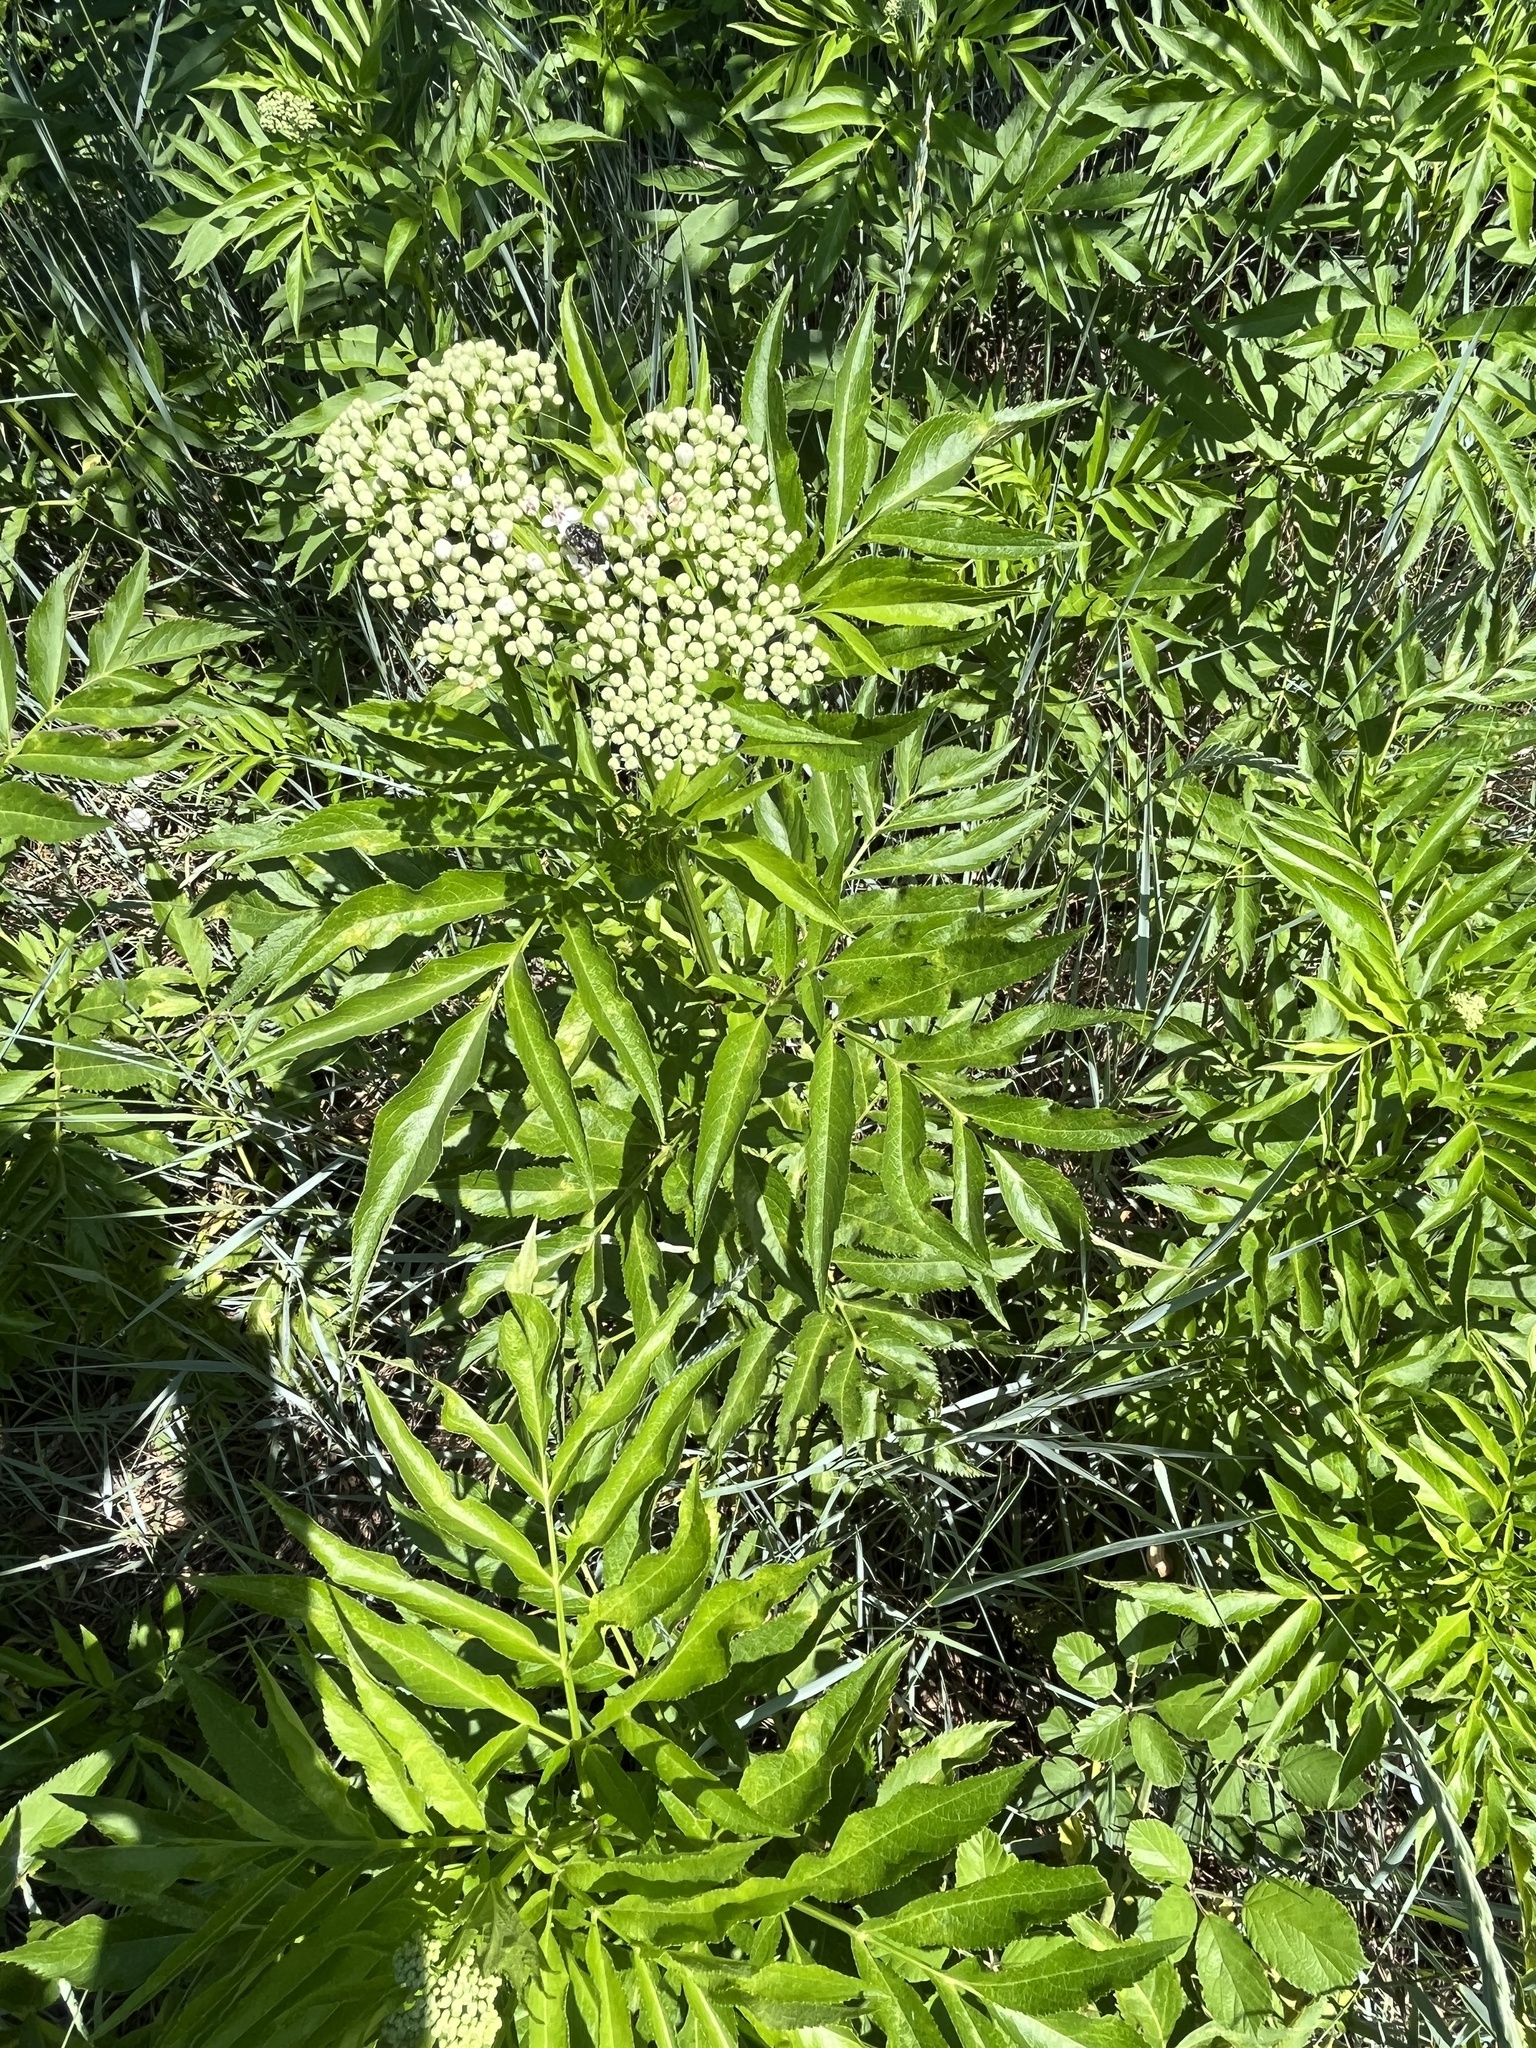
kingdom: Plantae
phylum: Tracheophyta
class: Magnoliopsida
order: Dipsacales
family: Viburnaceae
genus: Sambucus
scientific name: Sambucus ebulus
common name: Dwarf elder
